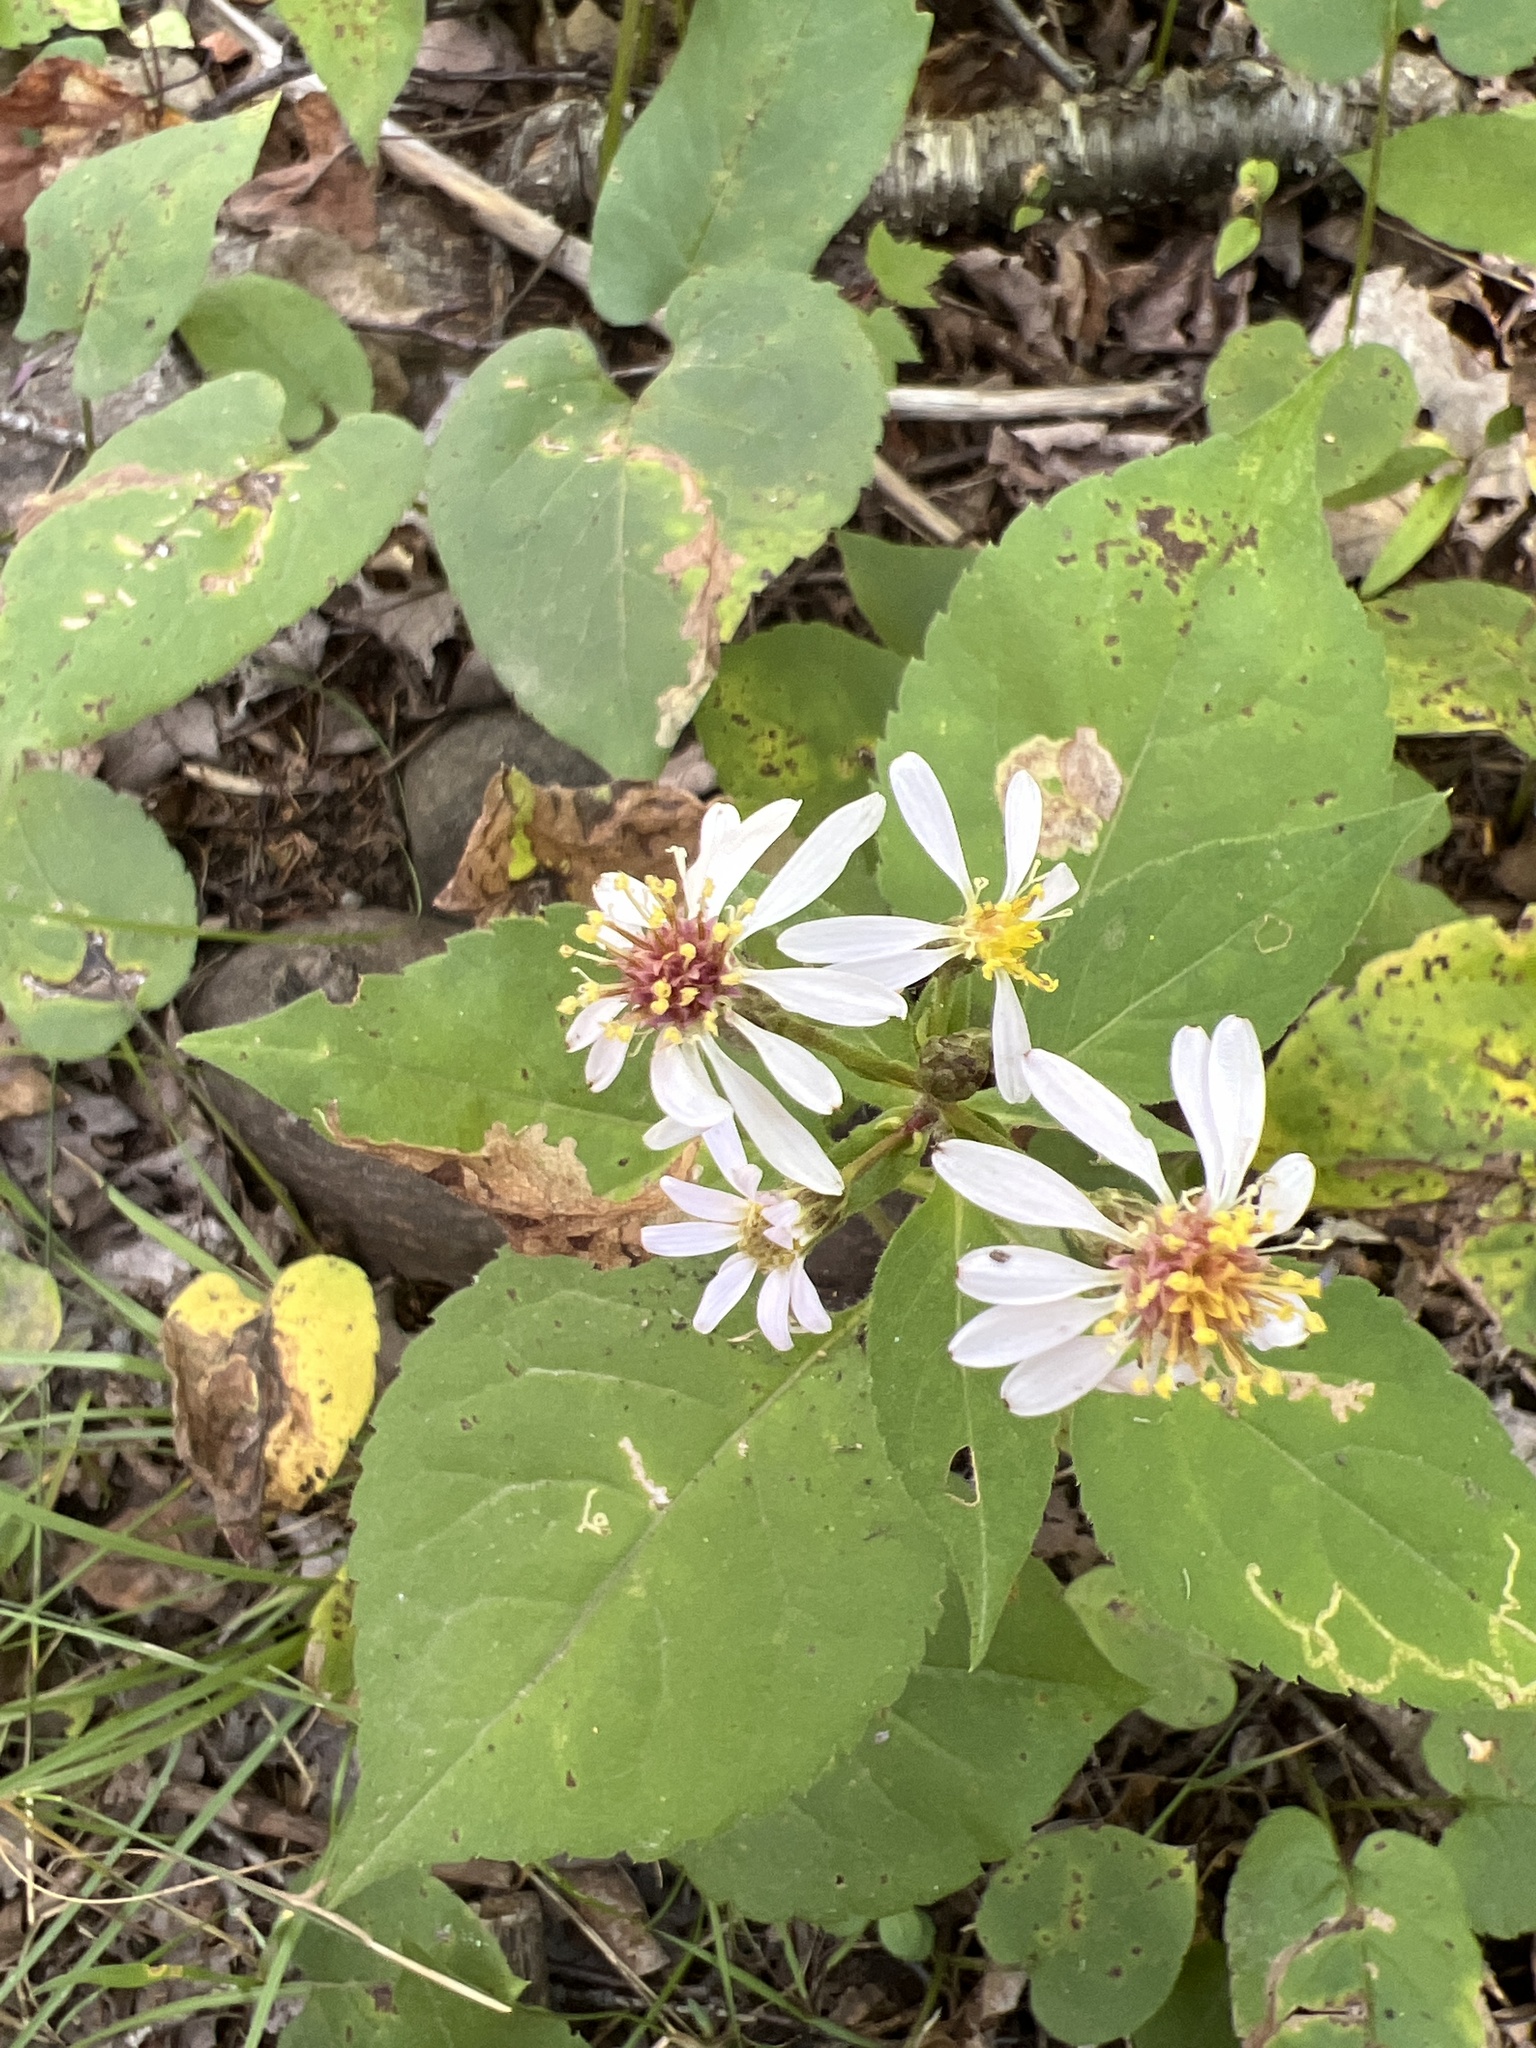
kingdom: Plantae
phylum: Tracheophyta
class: Magnoliopsida
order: Asterales
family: Asteraceae
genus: Eurybia
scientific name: Eurybia macrophylla
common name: Big-leaved aster
